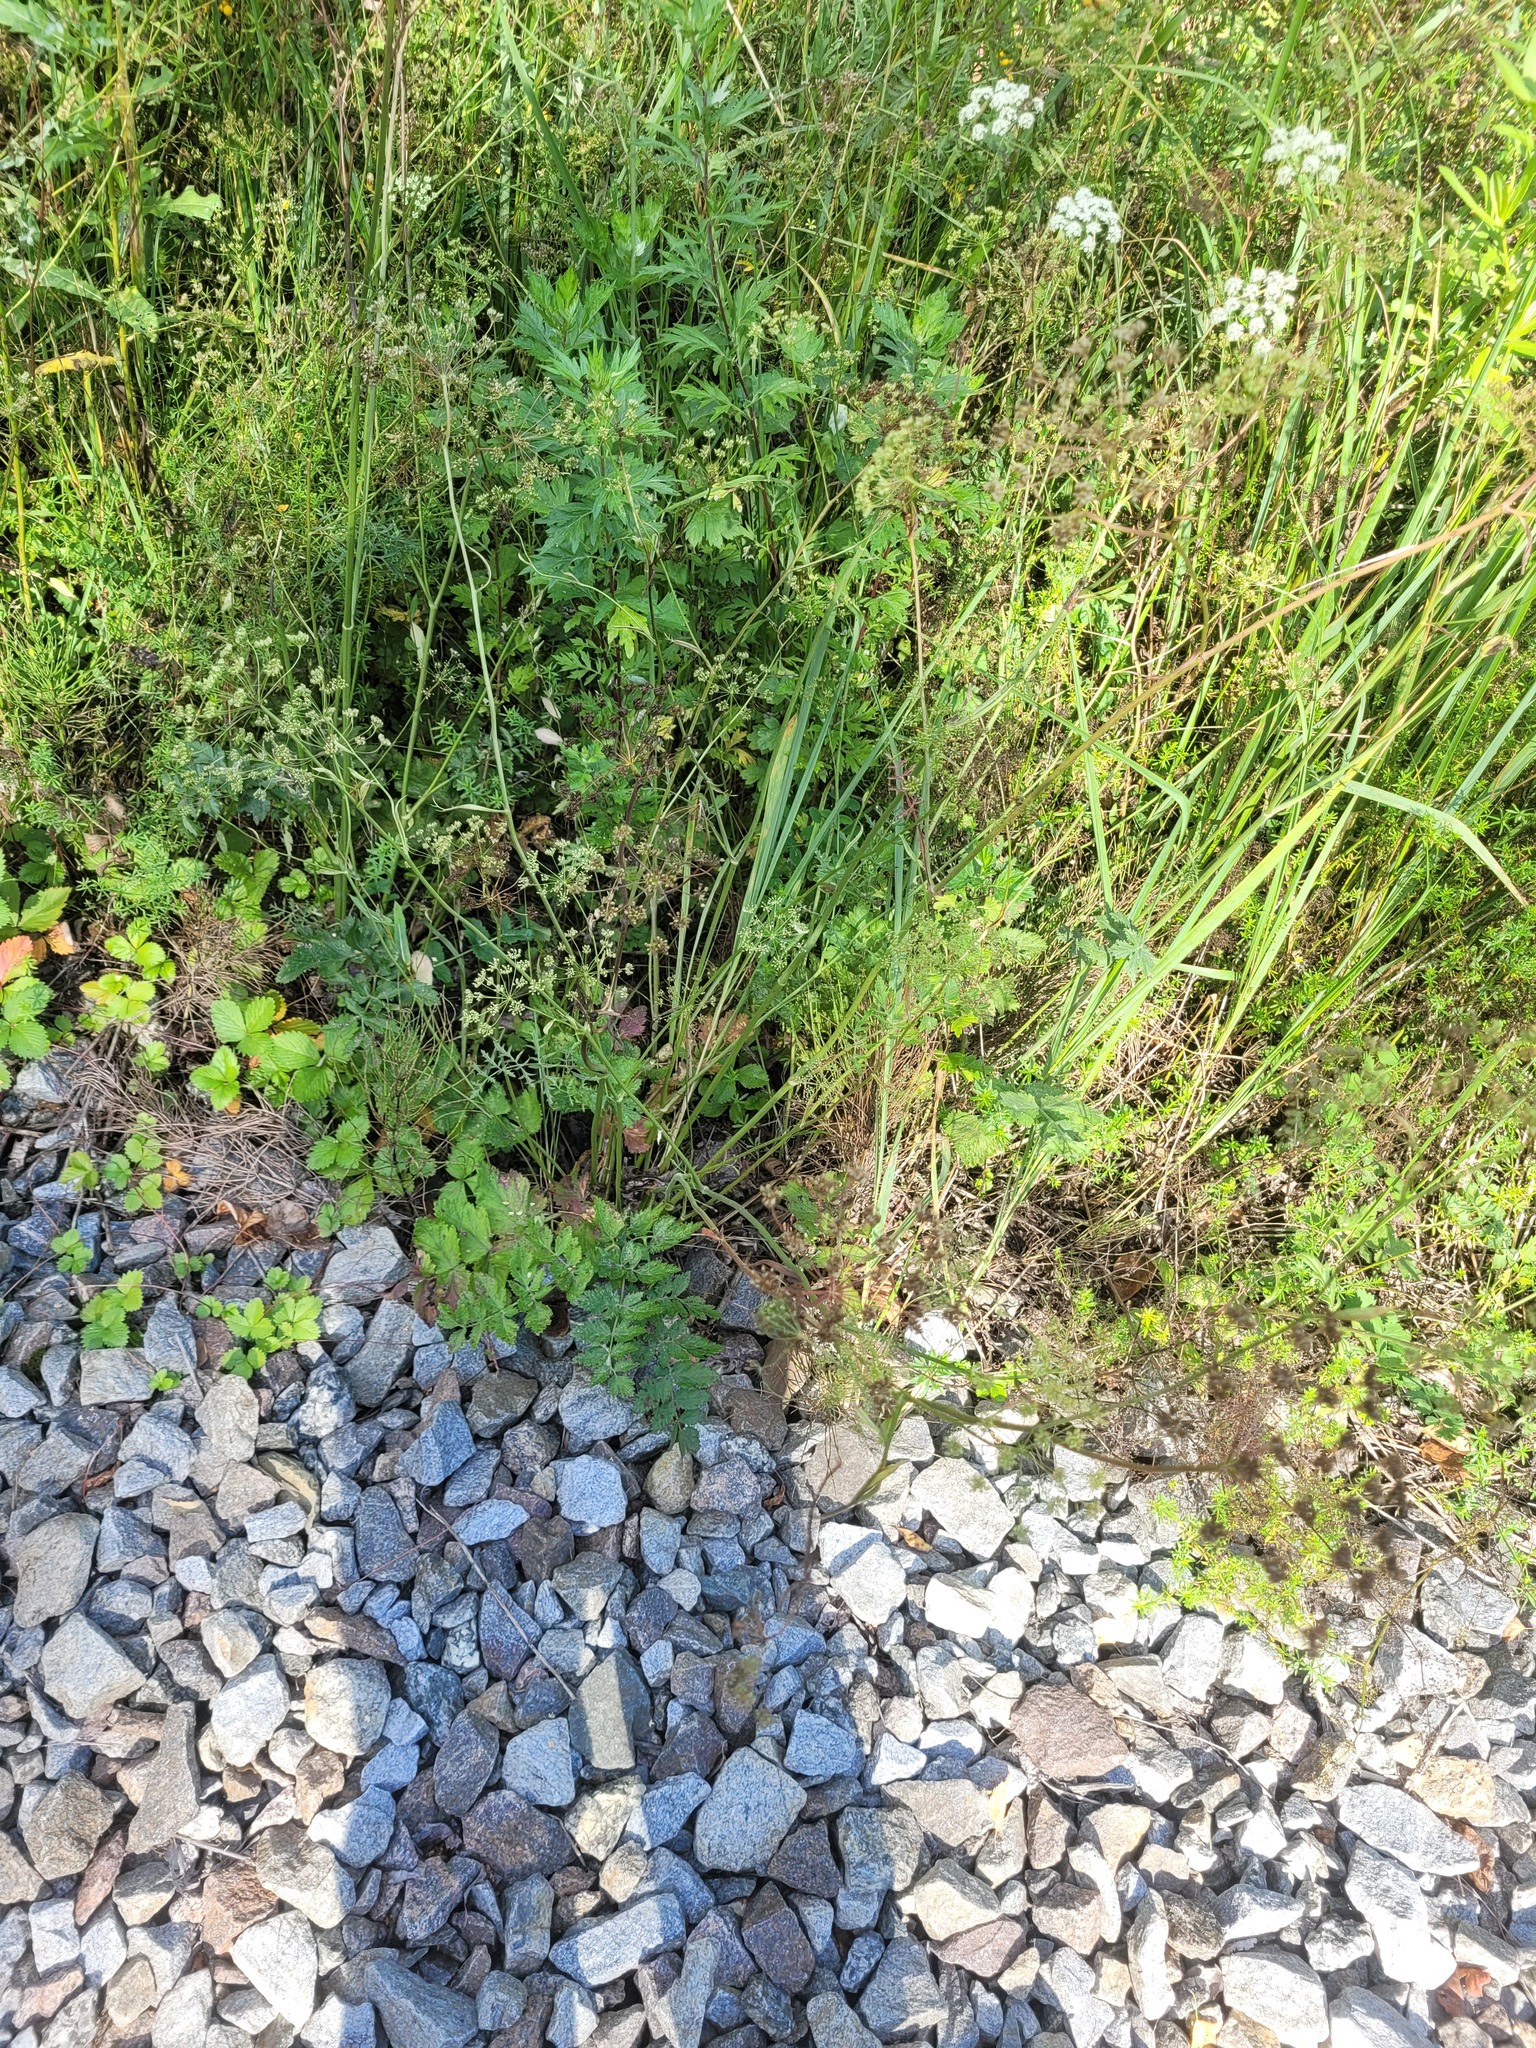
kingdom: Plantae
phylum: Tracheophyta
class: Magnoliopsida
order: Apiales
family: Apiaceae
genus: Pimpinella
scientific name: Pimpinella saxifraga
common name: Burnet-saxifrage
